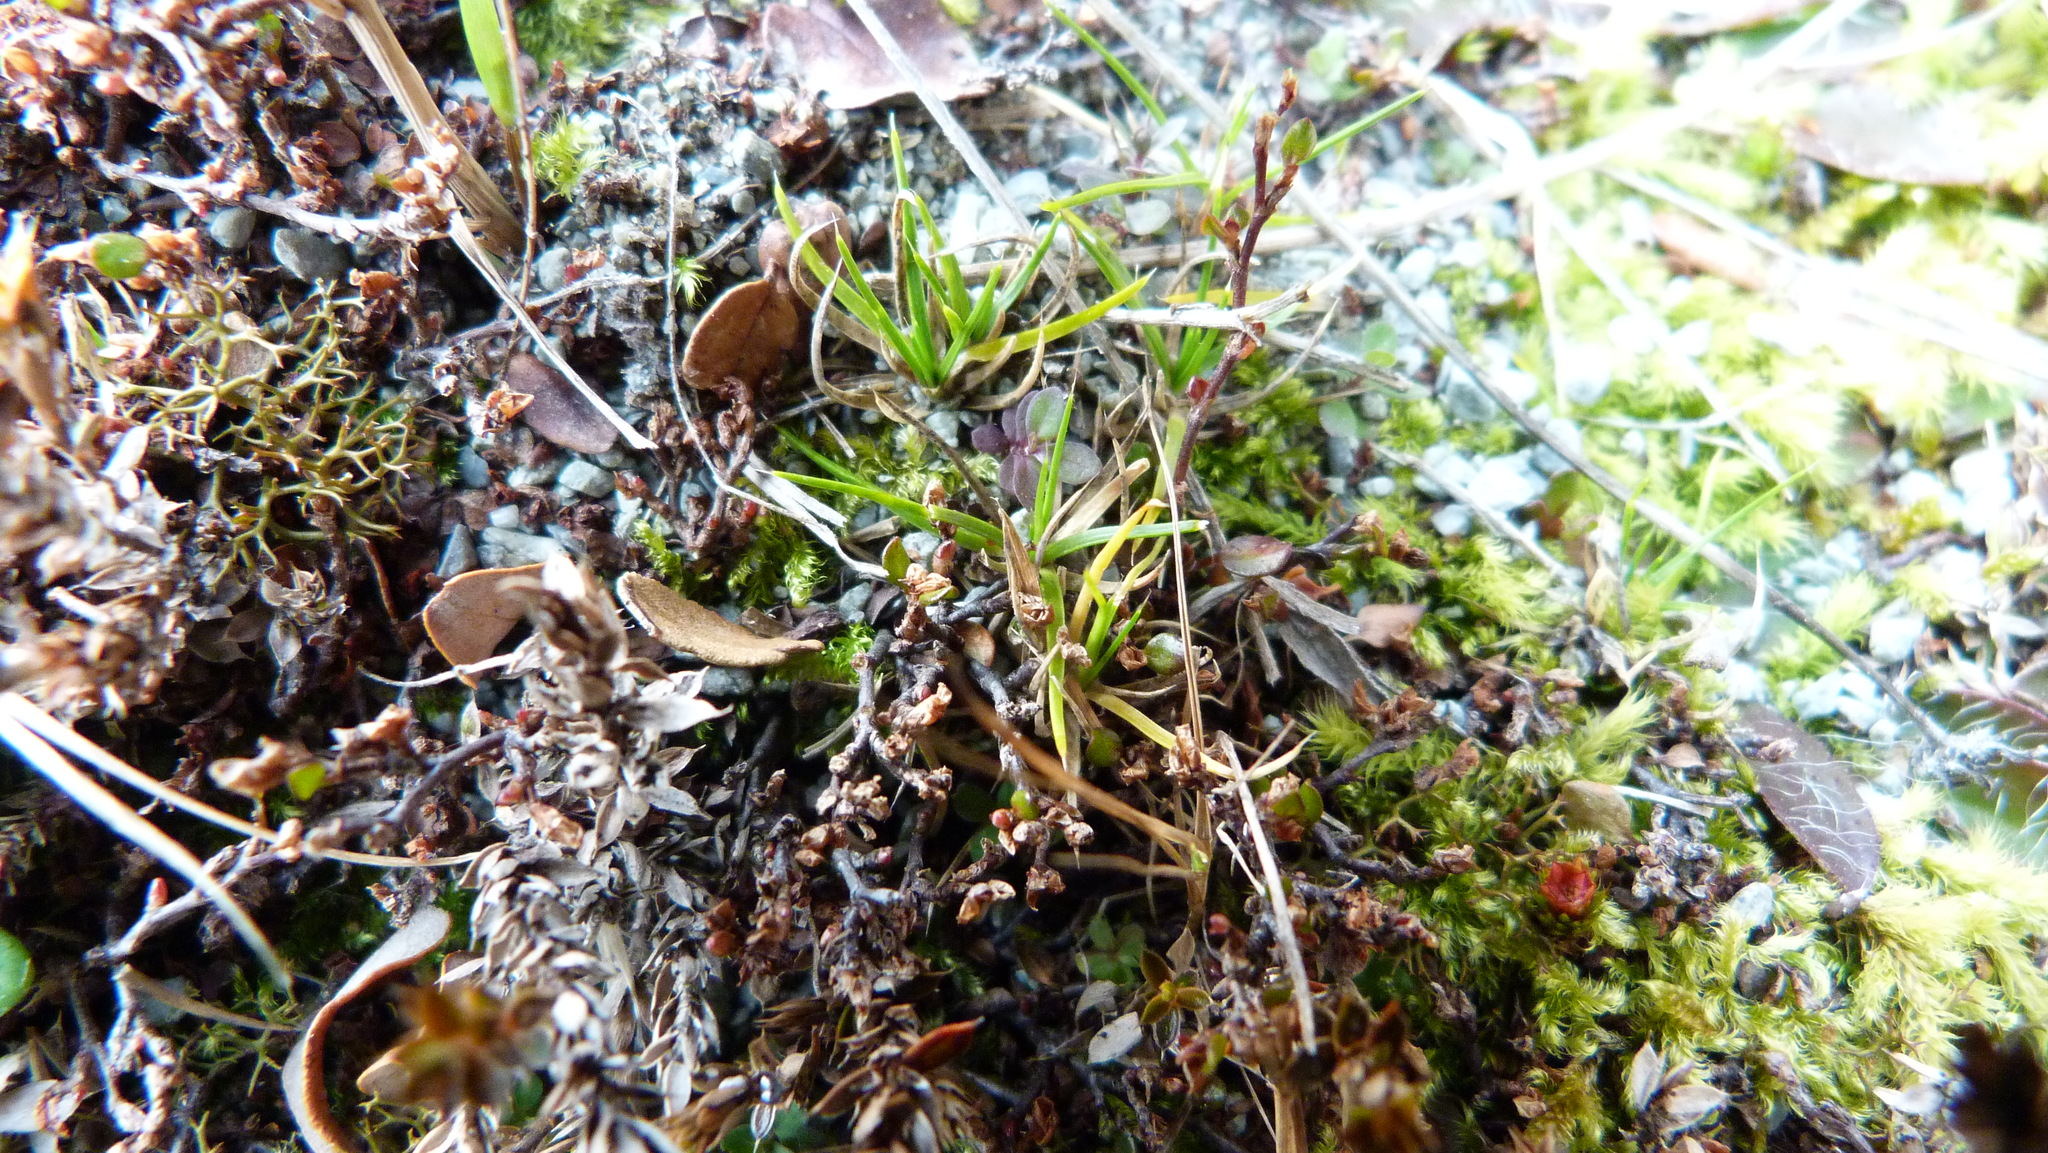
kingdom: Plantae
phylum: Tracheophyta
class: Magnoliopsida
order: Caryophyllales
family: Polygonaceae
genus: Muehlenbeckia
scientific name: Muehlenbeckia axillaris
